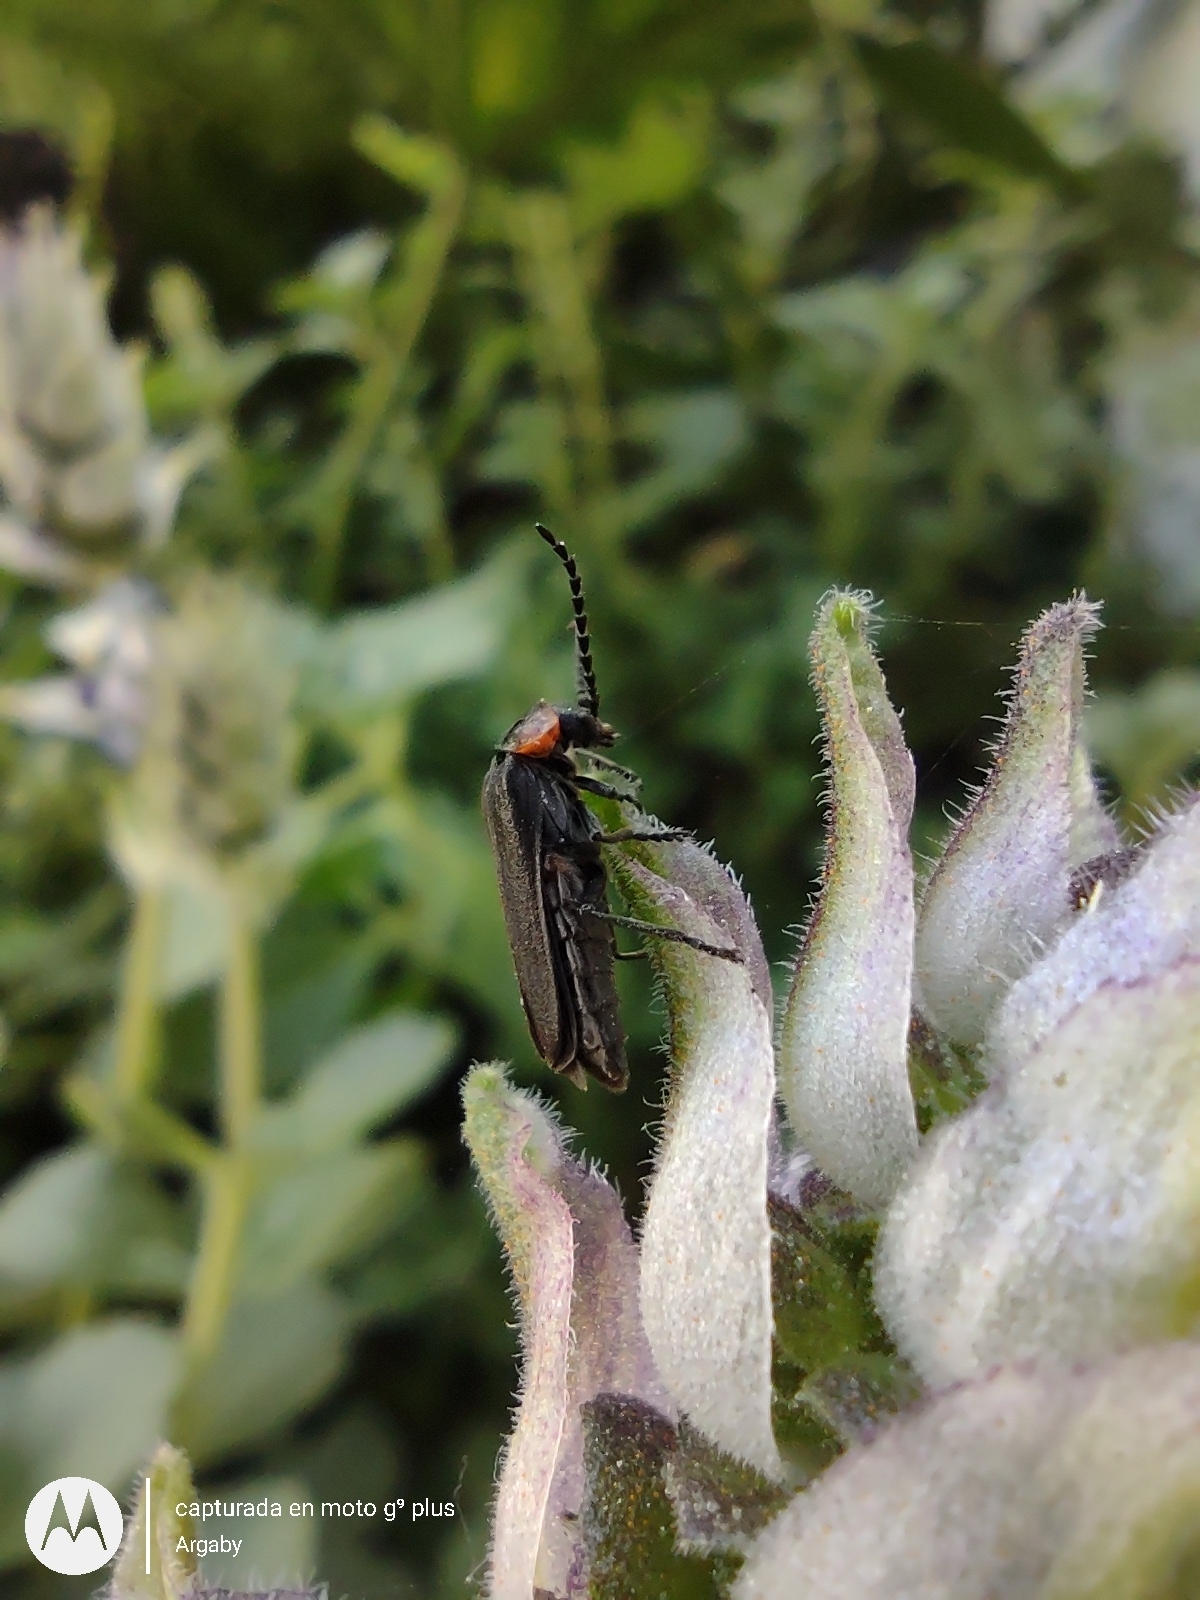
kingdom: Animalia
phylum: Arthropoda
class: Insecta
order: Coleoptera
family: Cantharidae
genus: Polemius
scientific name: Polemius
